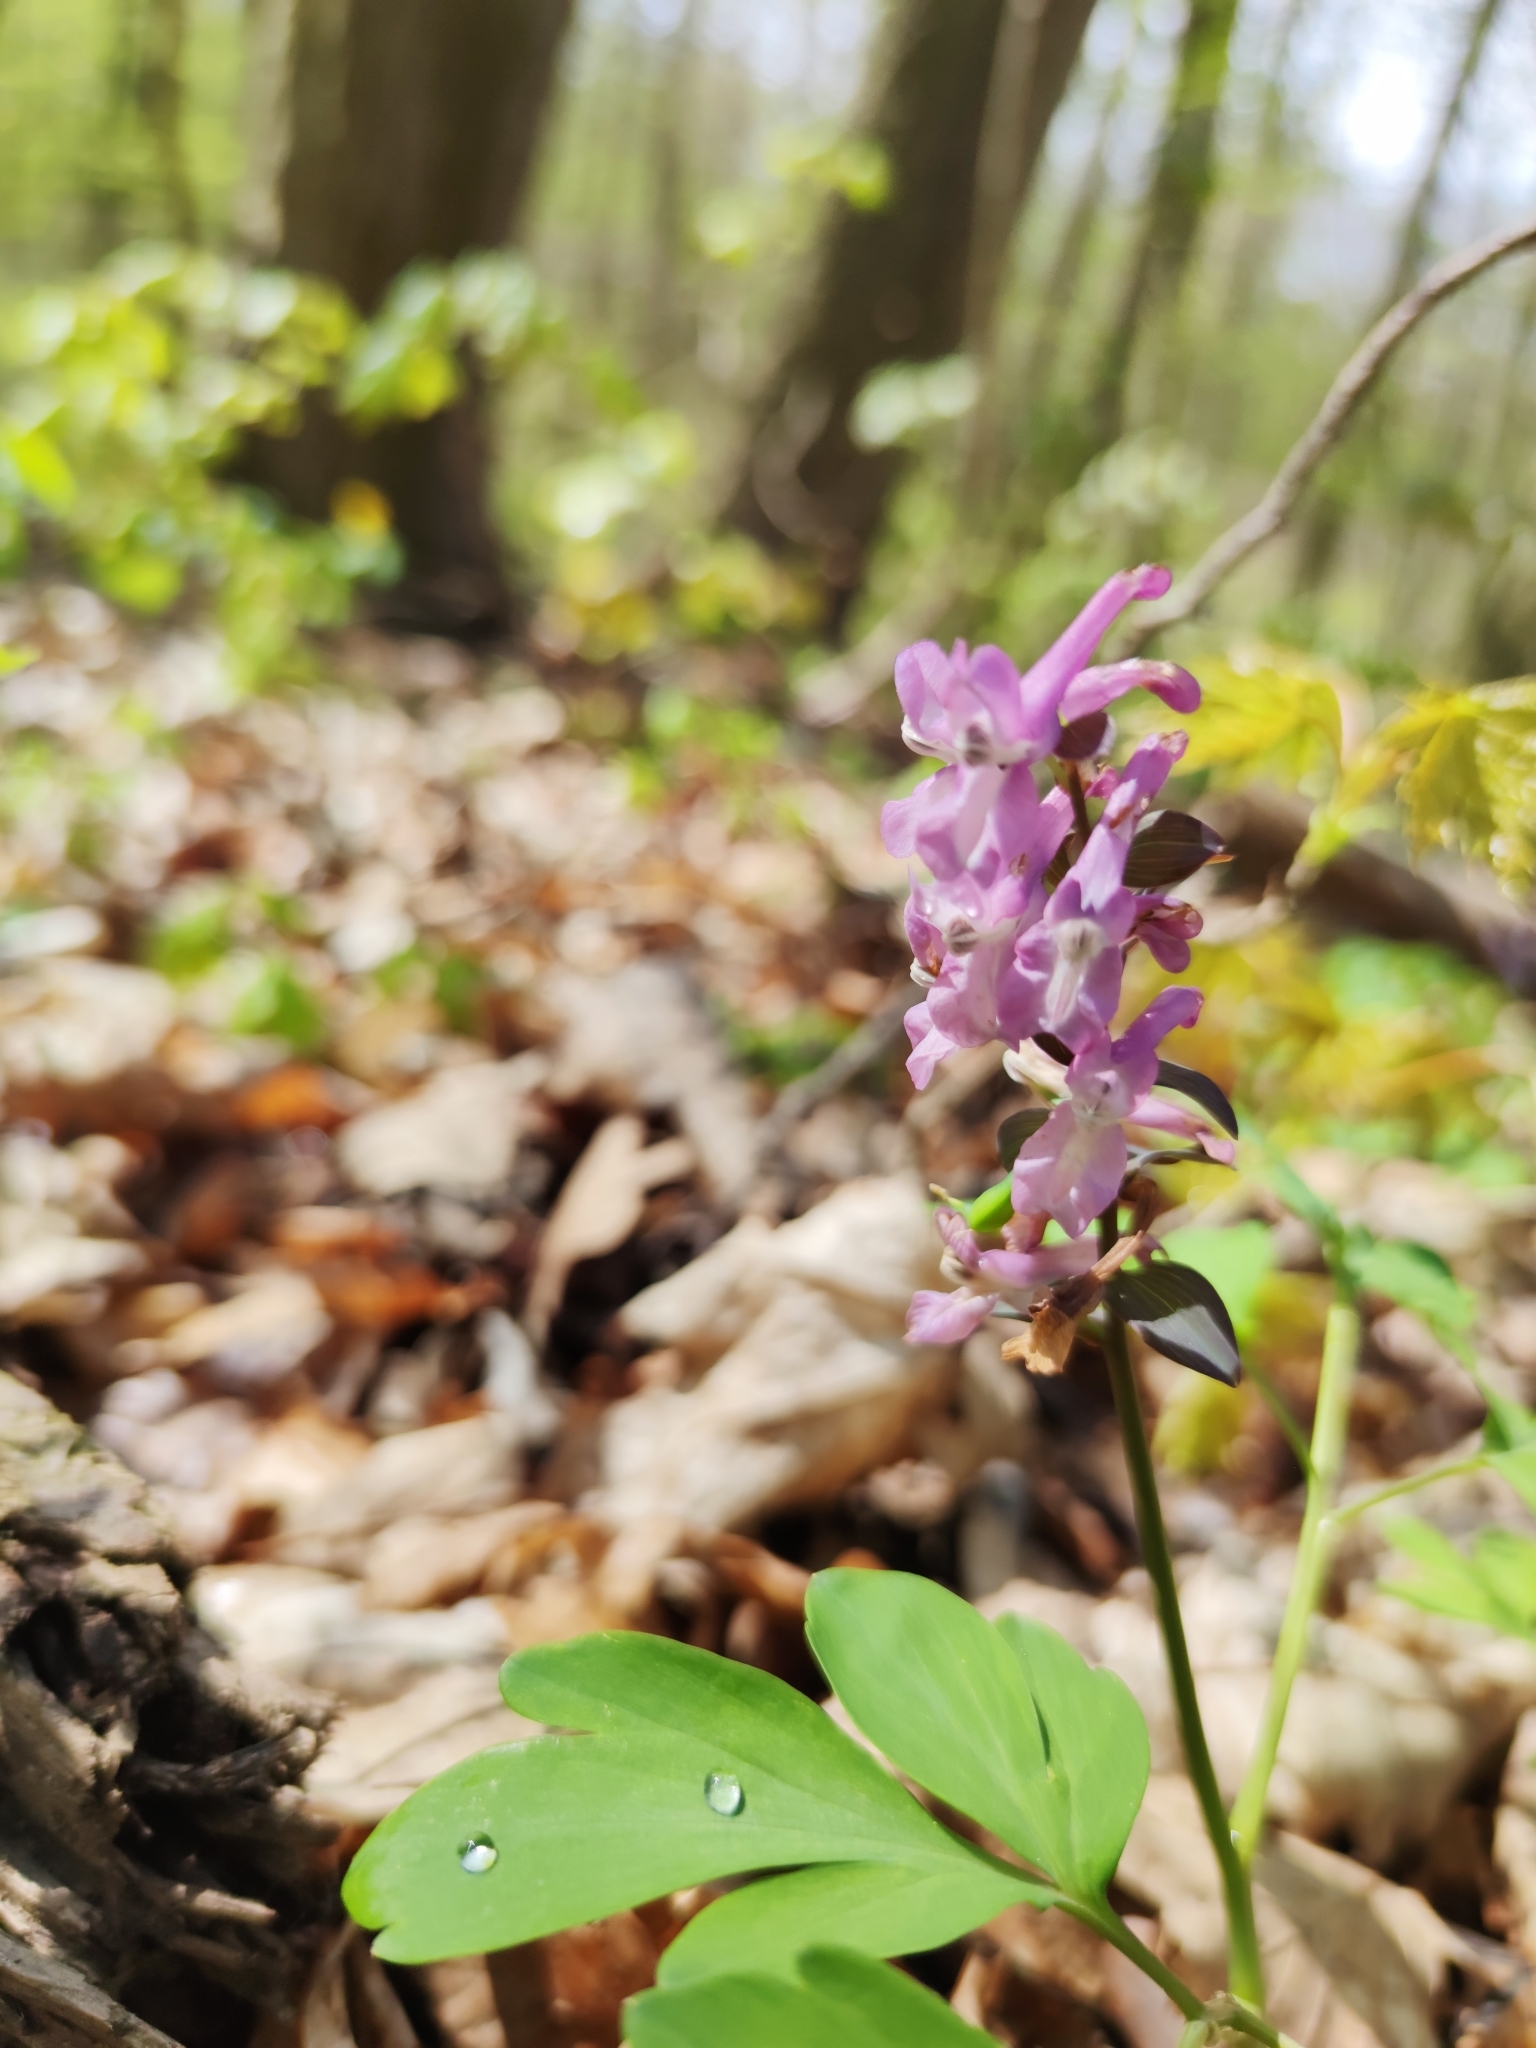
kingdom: Plantae
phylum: Tracheophyta
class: Magnoliopsida
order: Ranunculales
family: Papaveraceae
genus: Corydalis
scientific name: Corydalis cava
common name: Hollowroot
